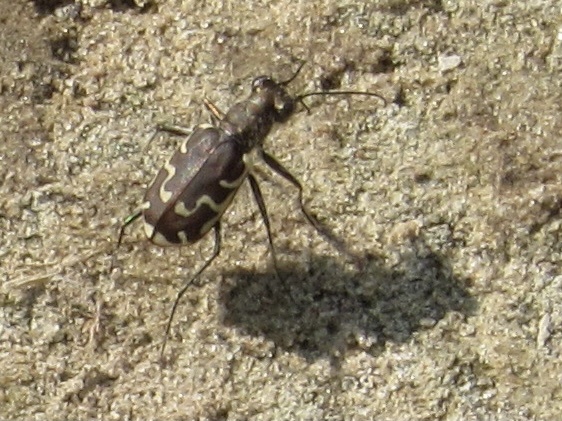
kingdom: Animalia
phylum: Arthropoda
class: Insecta
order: Coleoptera
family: Carabidae
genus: Cicindela
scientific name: Cicindela repanda
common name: Bronzed tiger beetle
